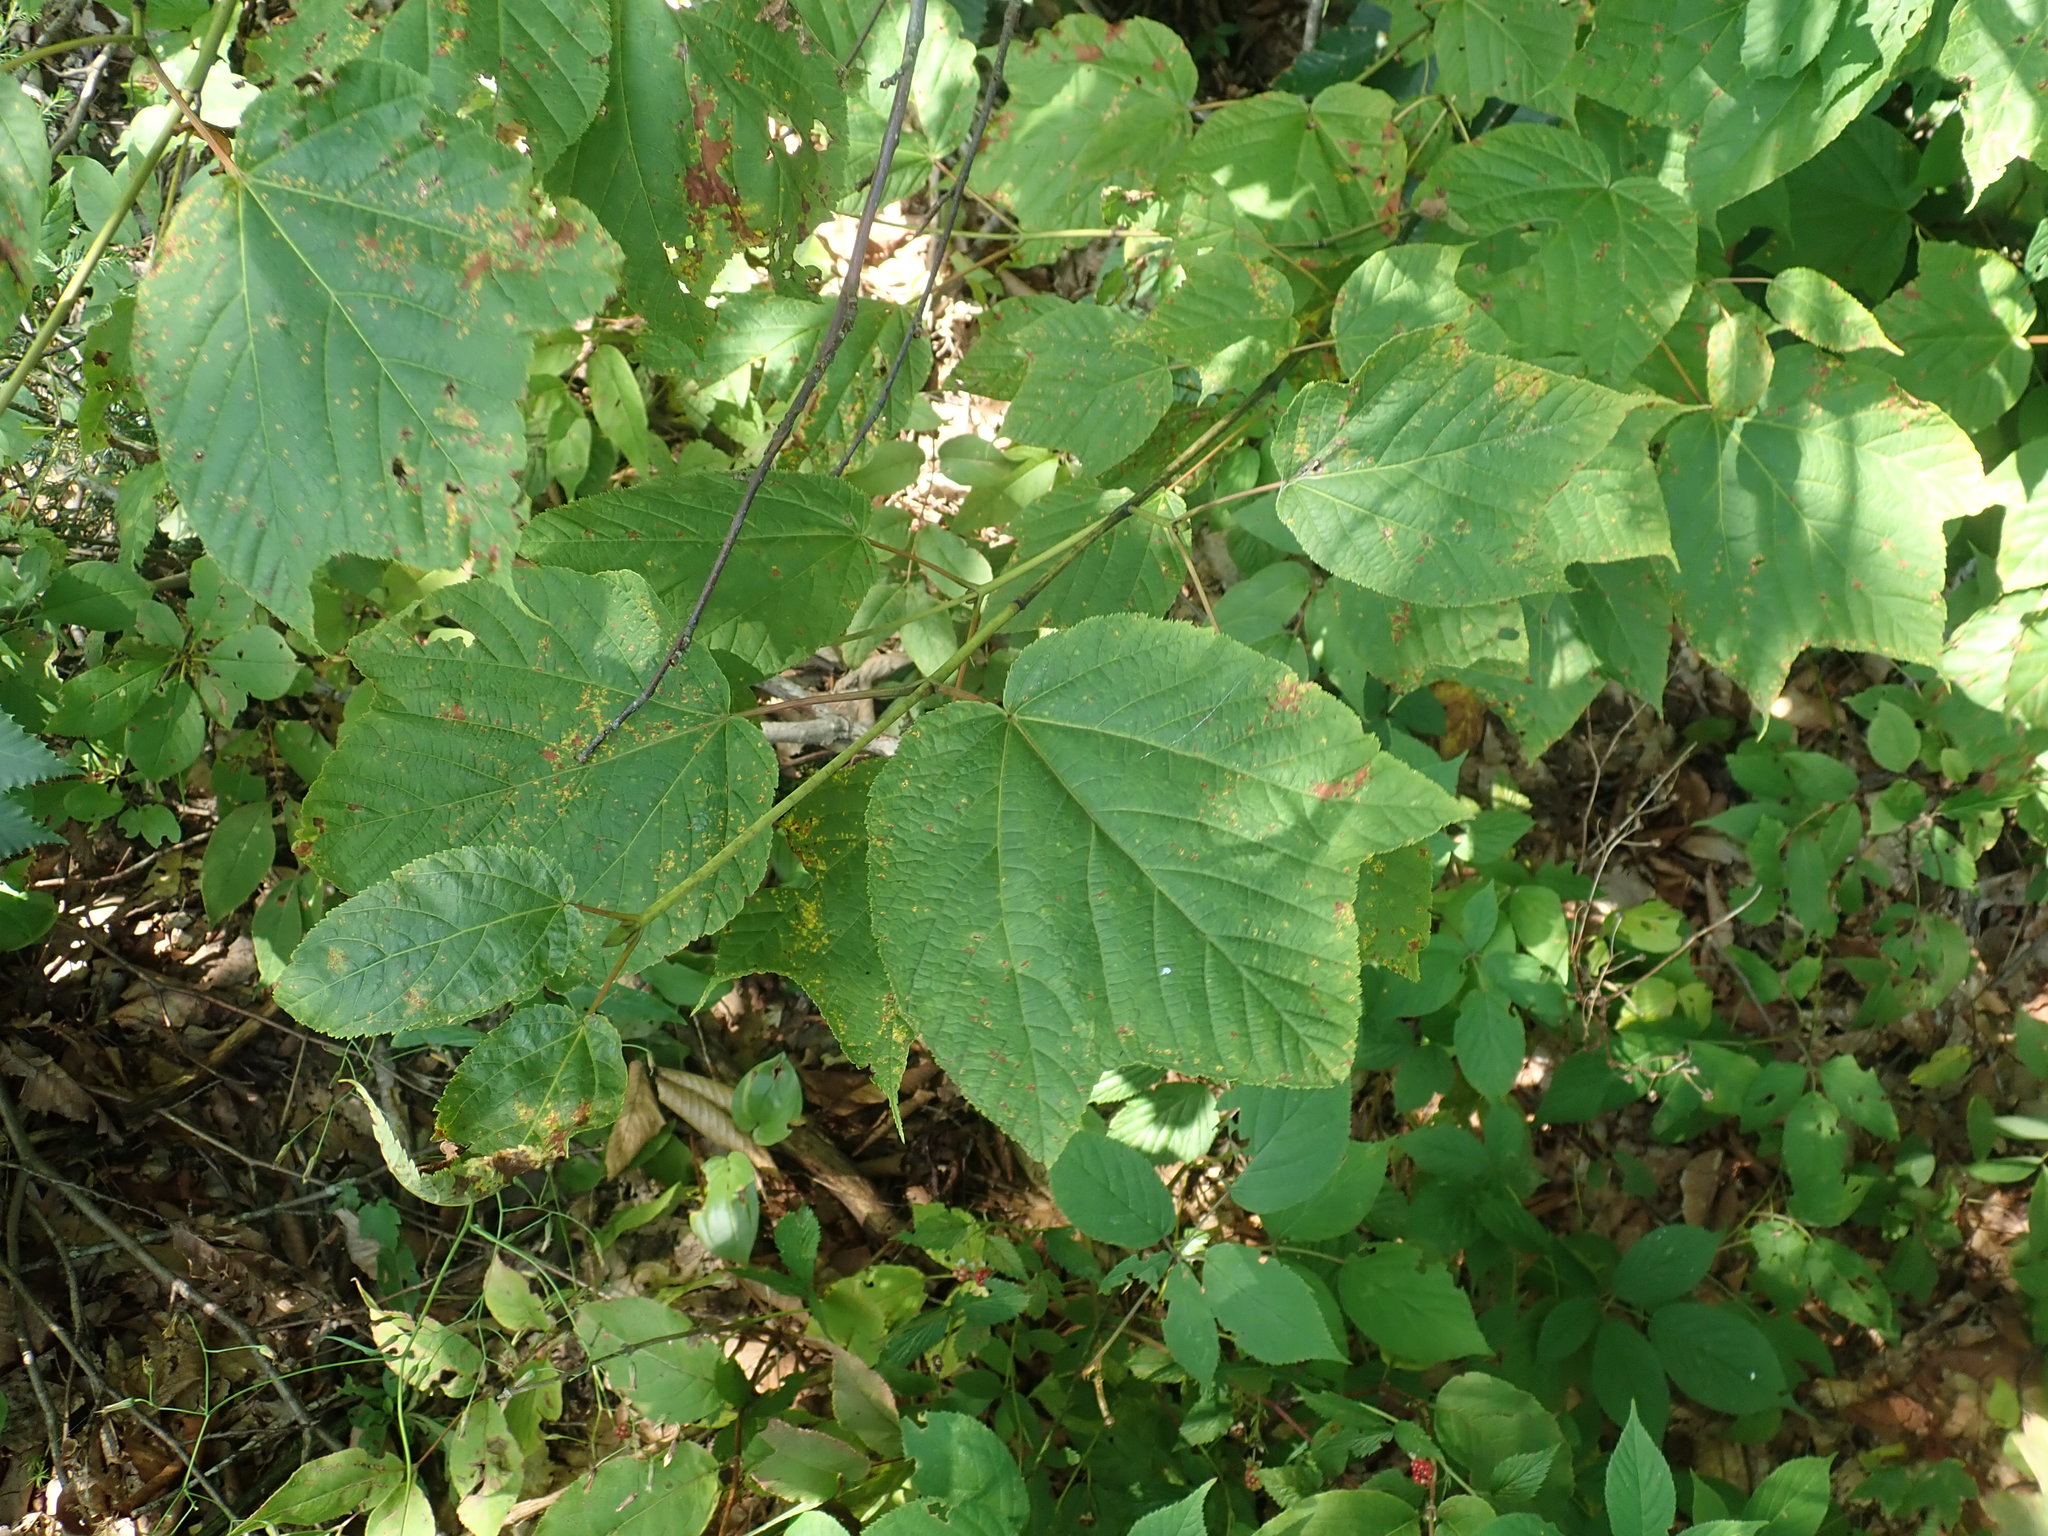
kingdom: Plantae
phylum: Tracheophyta
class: Magnoliopsida
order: Sapindales
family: Sapindaceae
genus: Acer
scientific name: Acer pensylvanicum
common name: Moosewood
